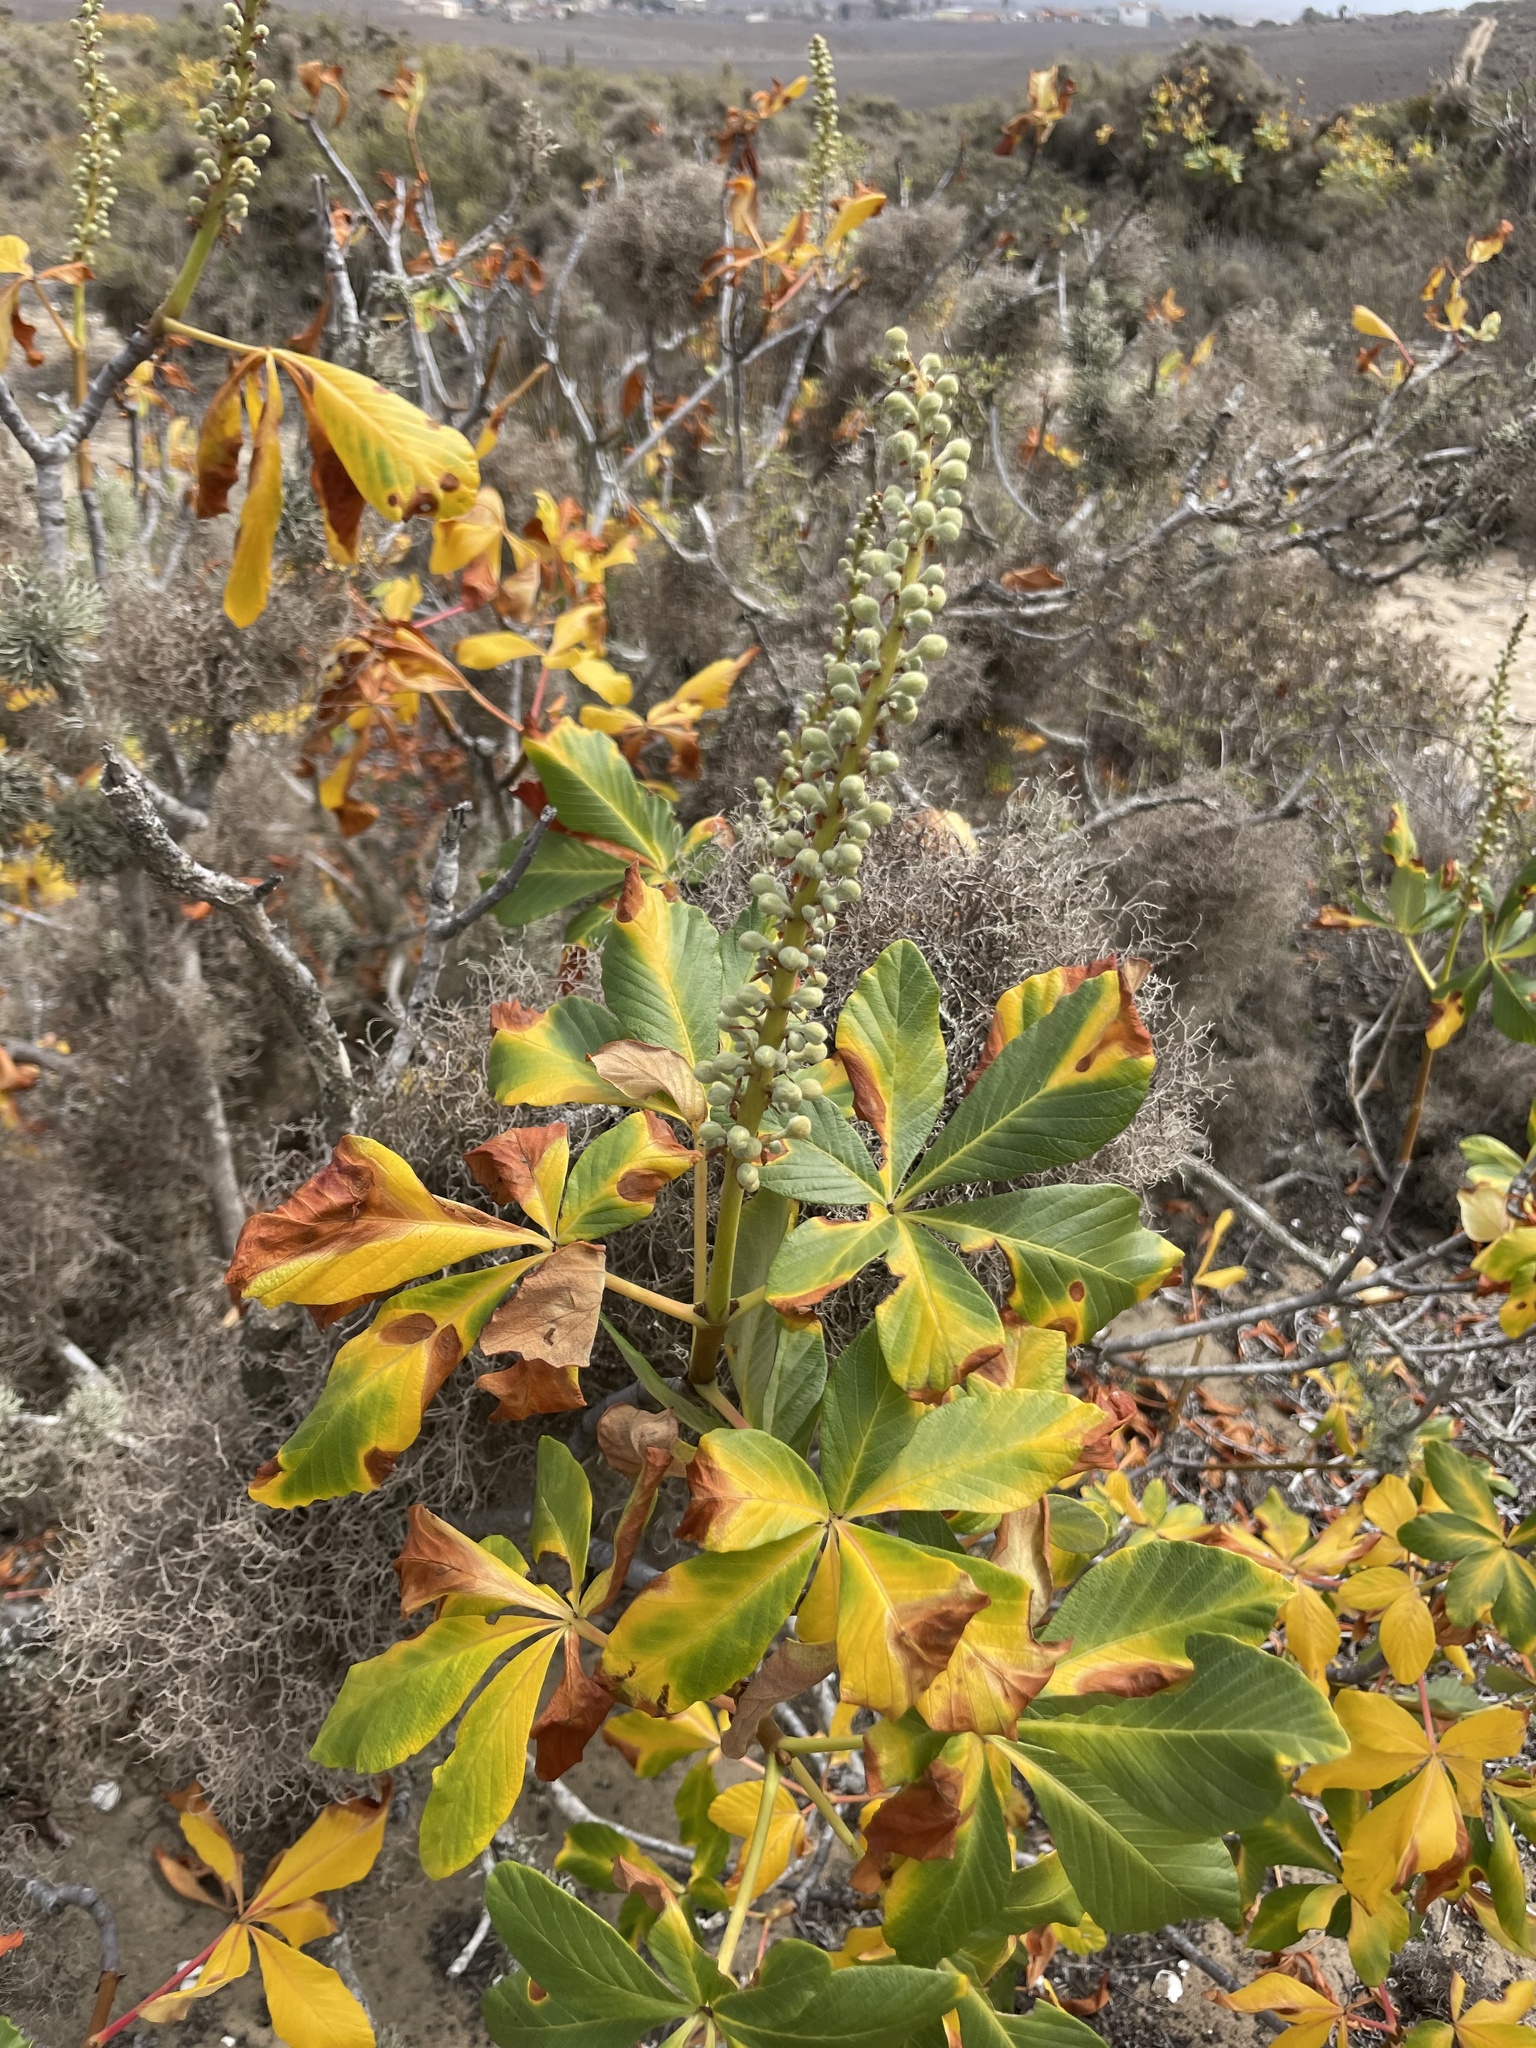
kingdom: Plantae
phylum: Tracheophyta
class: Magnoliopsida
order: Sapindales
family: Sapindaceae
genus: Aesculus
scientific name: Aesculus parryi
